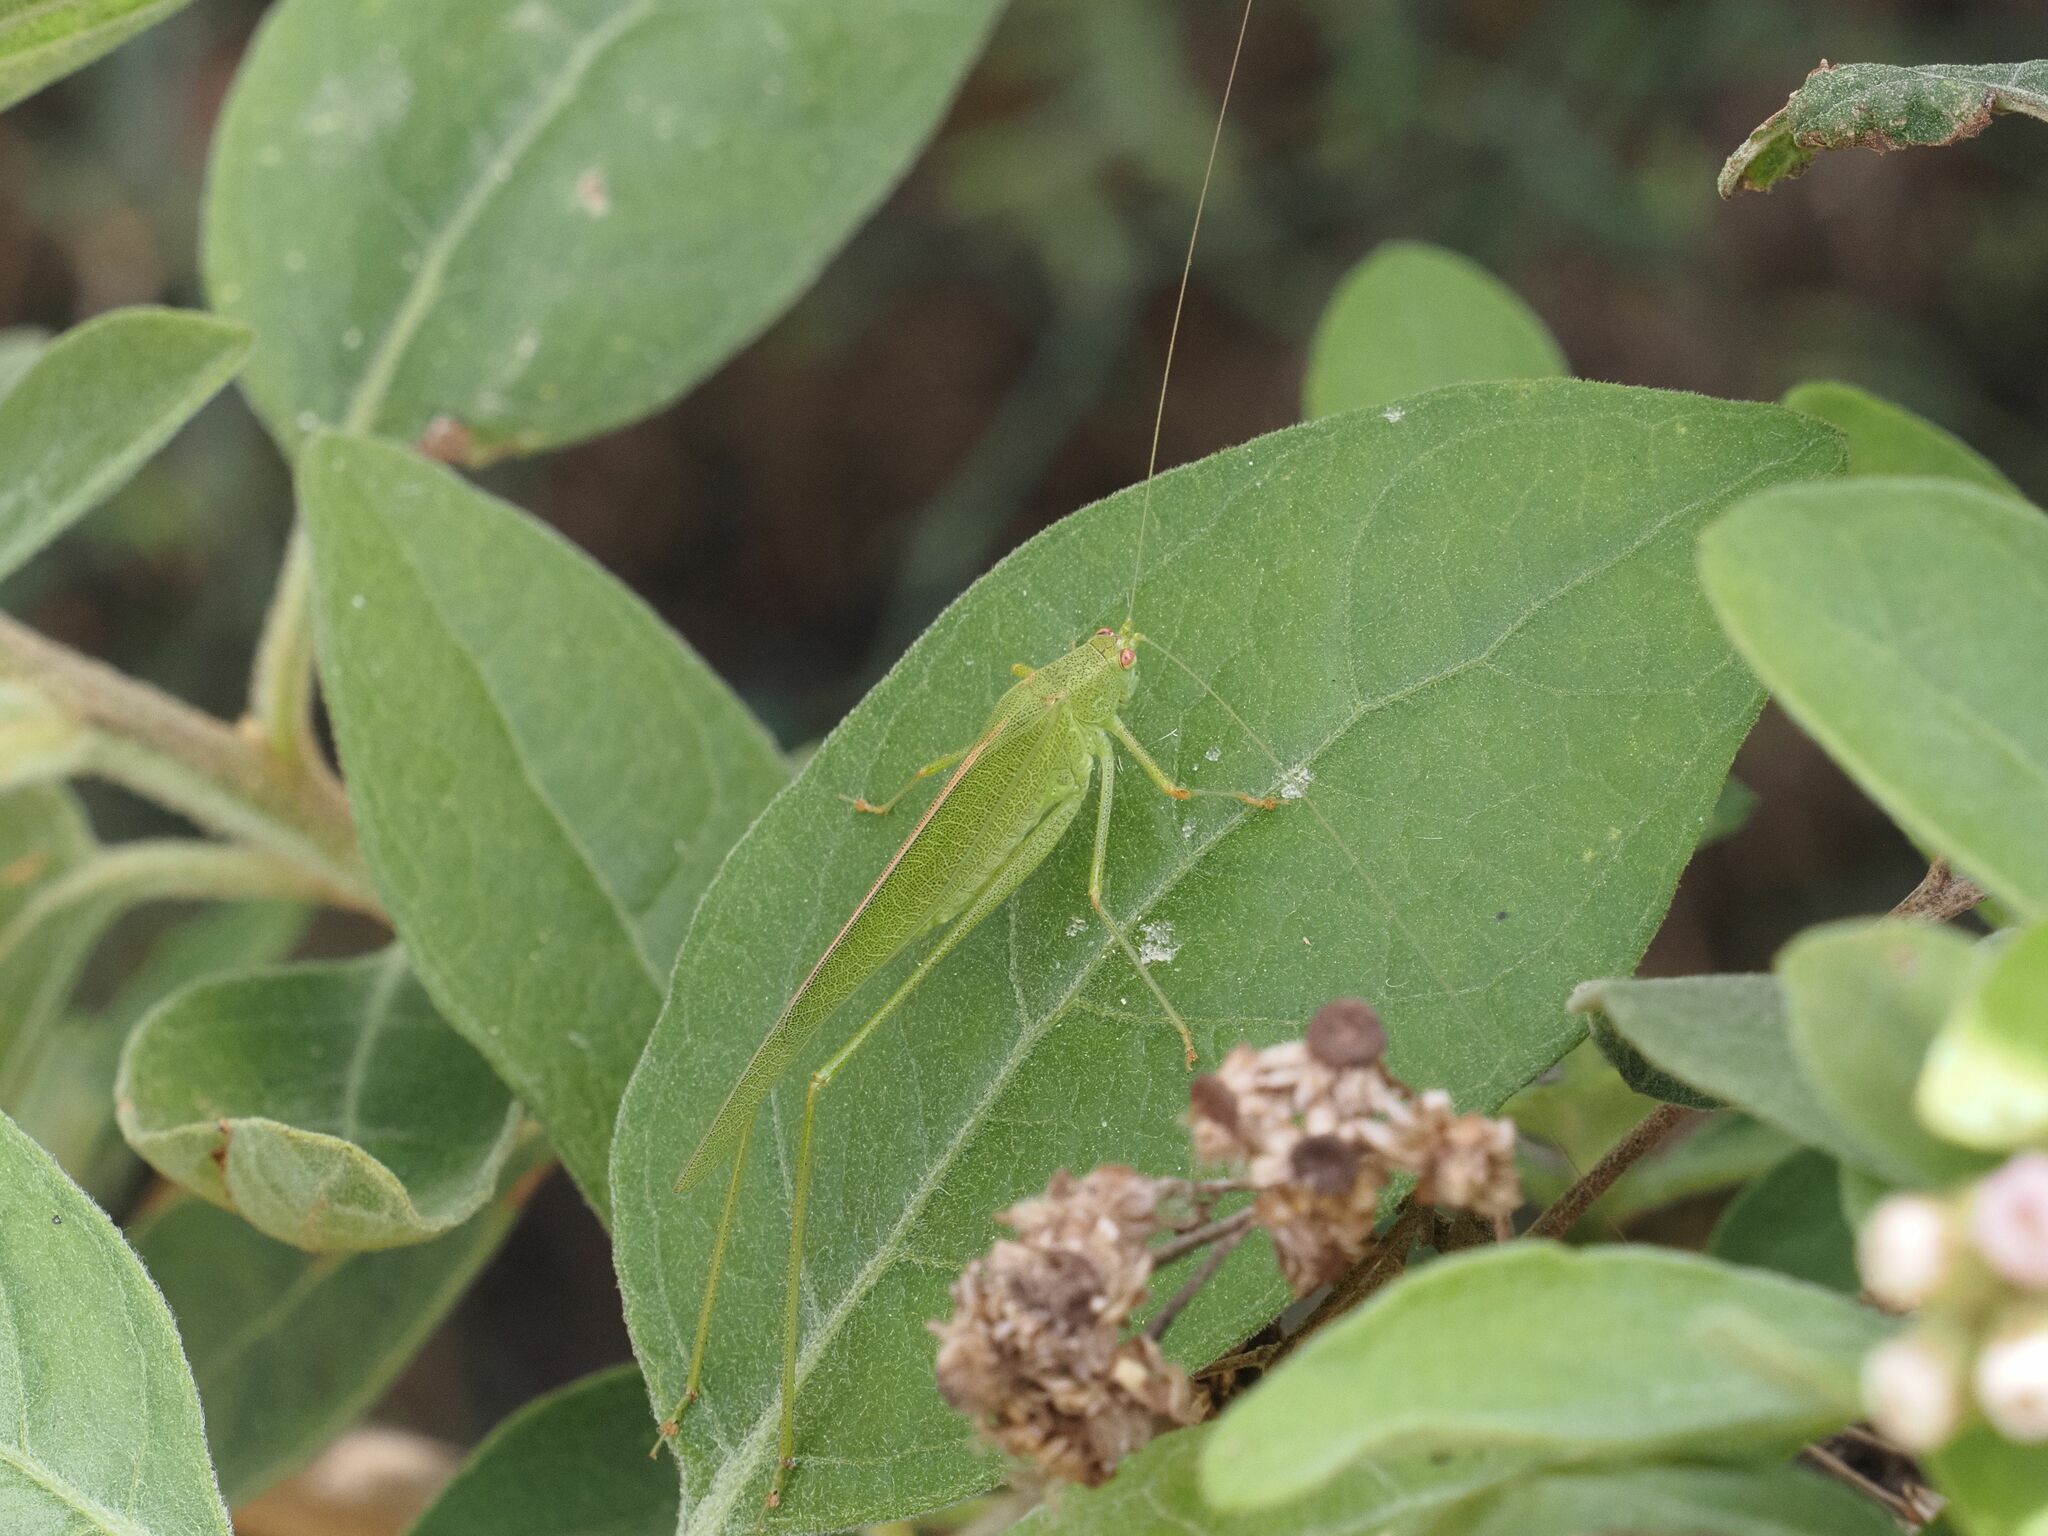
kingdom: Animalia
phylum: Arthropoda
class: Insecta
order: Orthoptera
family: Tettigoniidae
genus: Phaneroptera
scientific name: Phaneroptera sparsa
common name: Sickle-bearing leaf katydid
